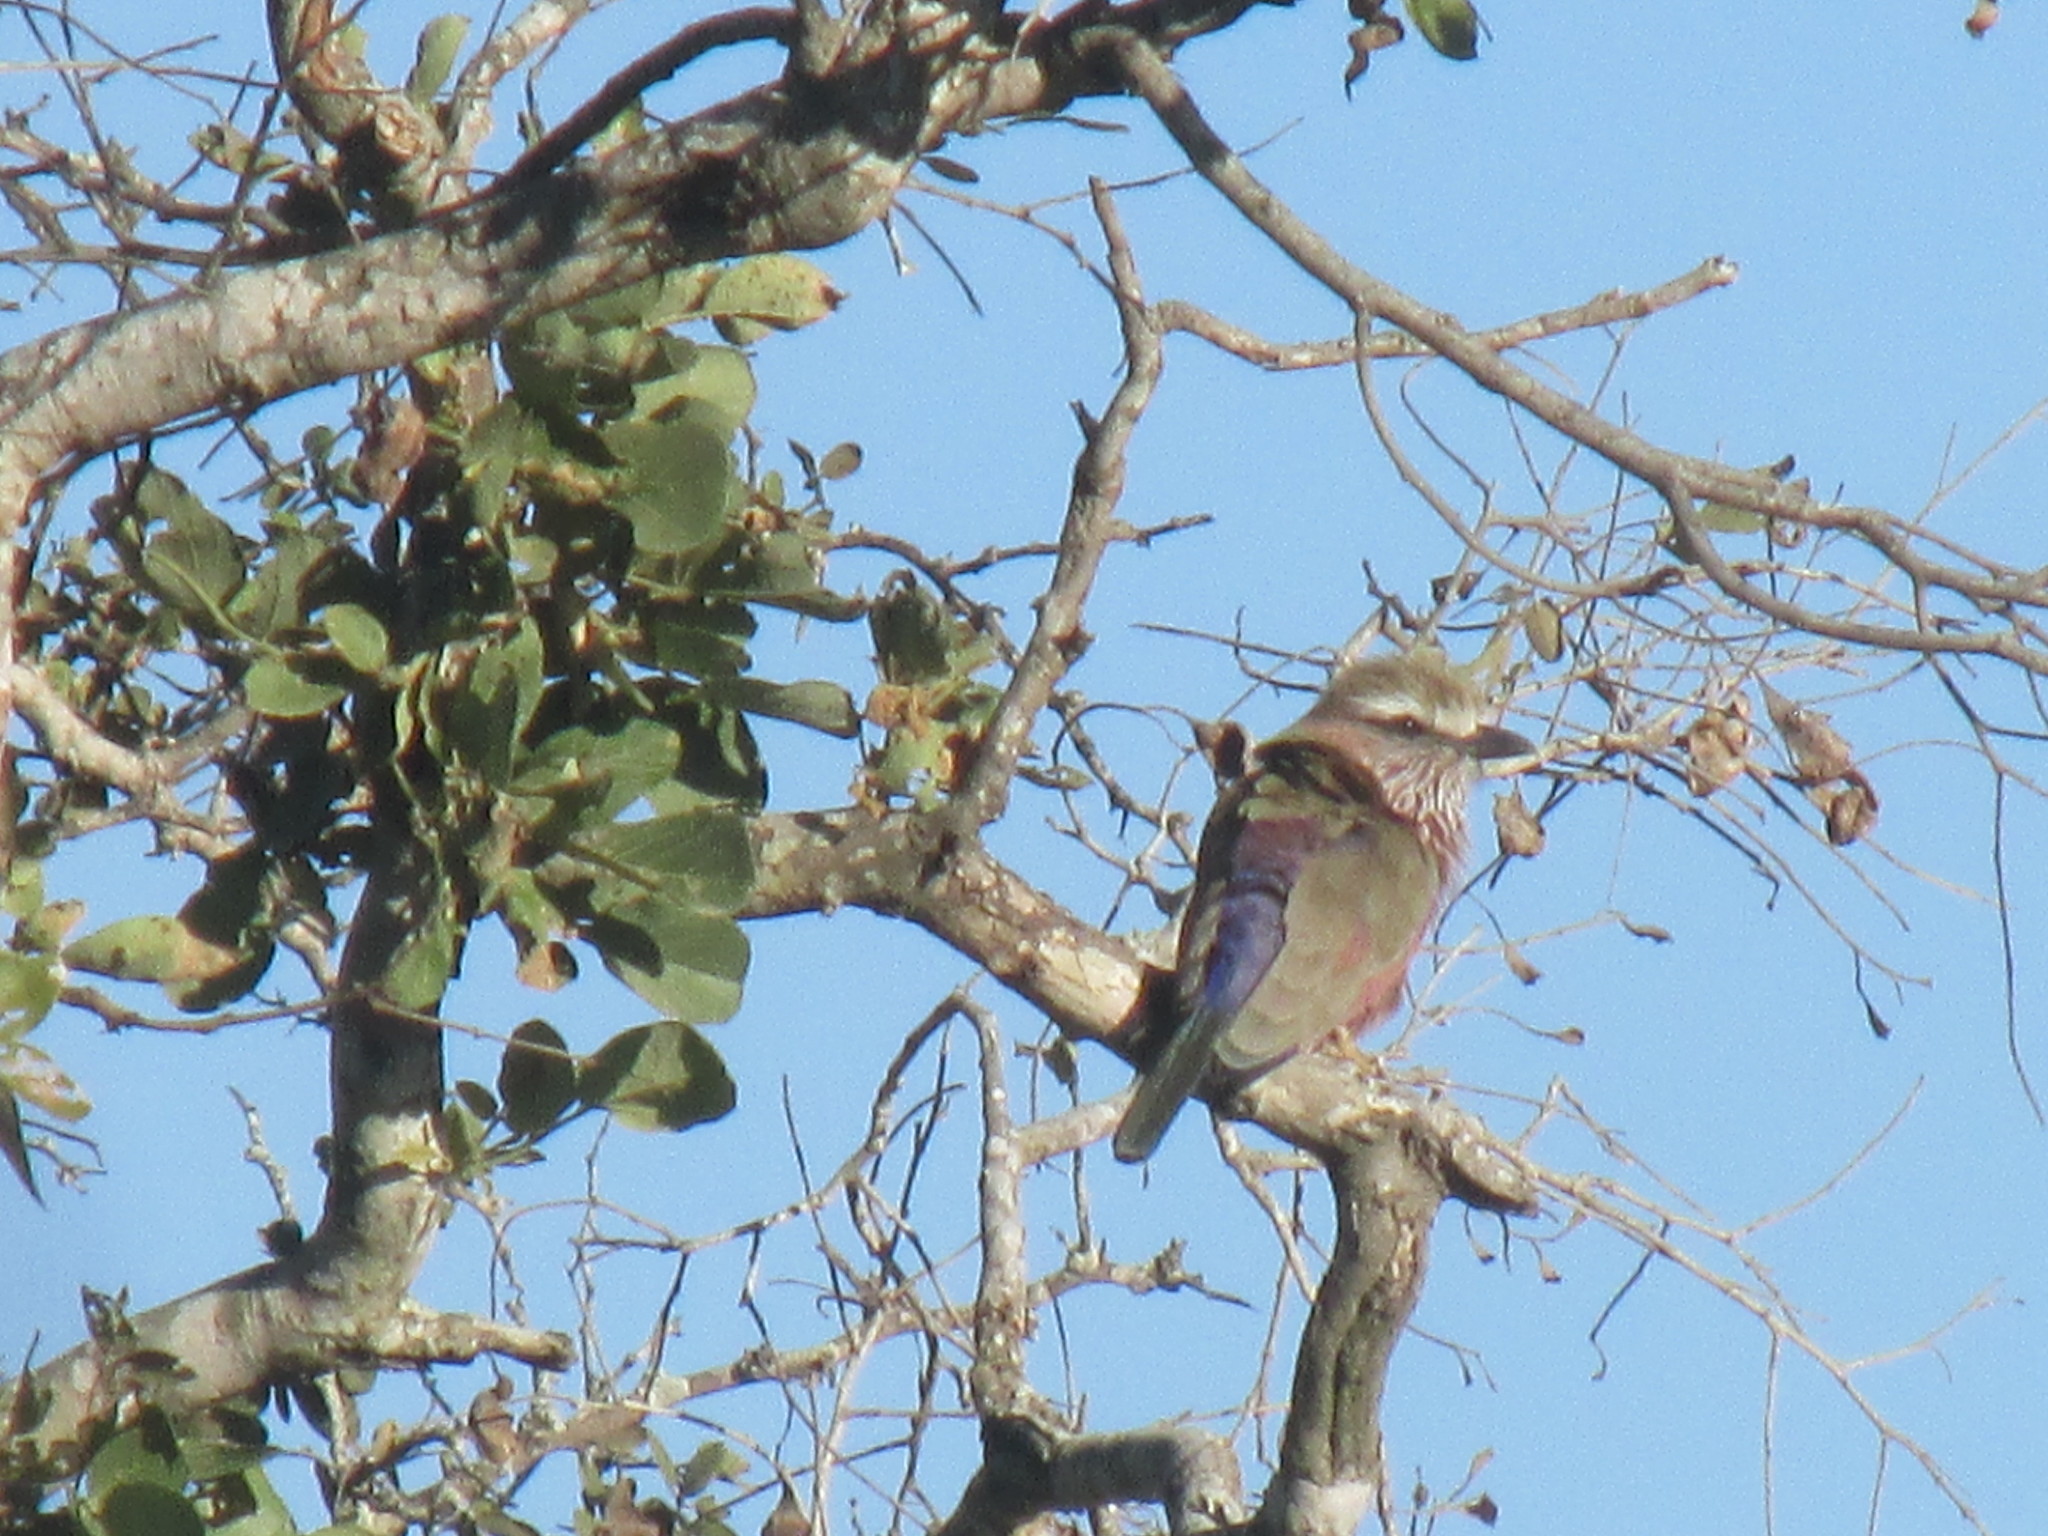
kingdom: Animalia
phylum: Chordata
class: Aves
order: Coraciiformes
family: Coraciidae
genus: Coracias
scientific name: Coracias naevius
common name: Purple roller
